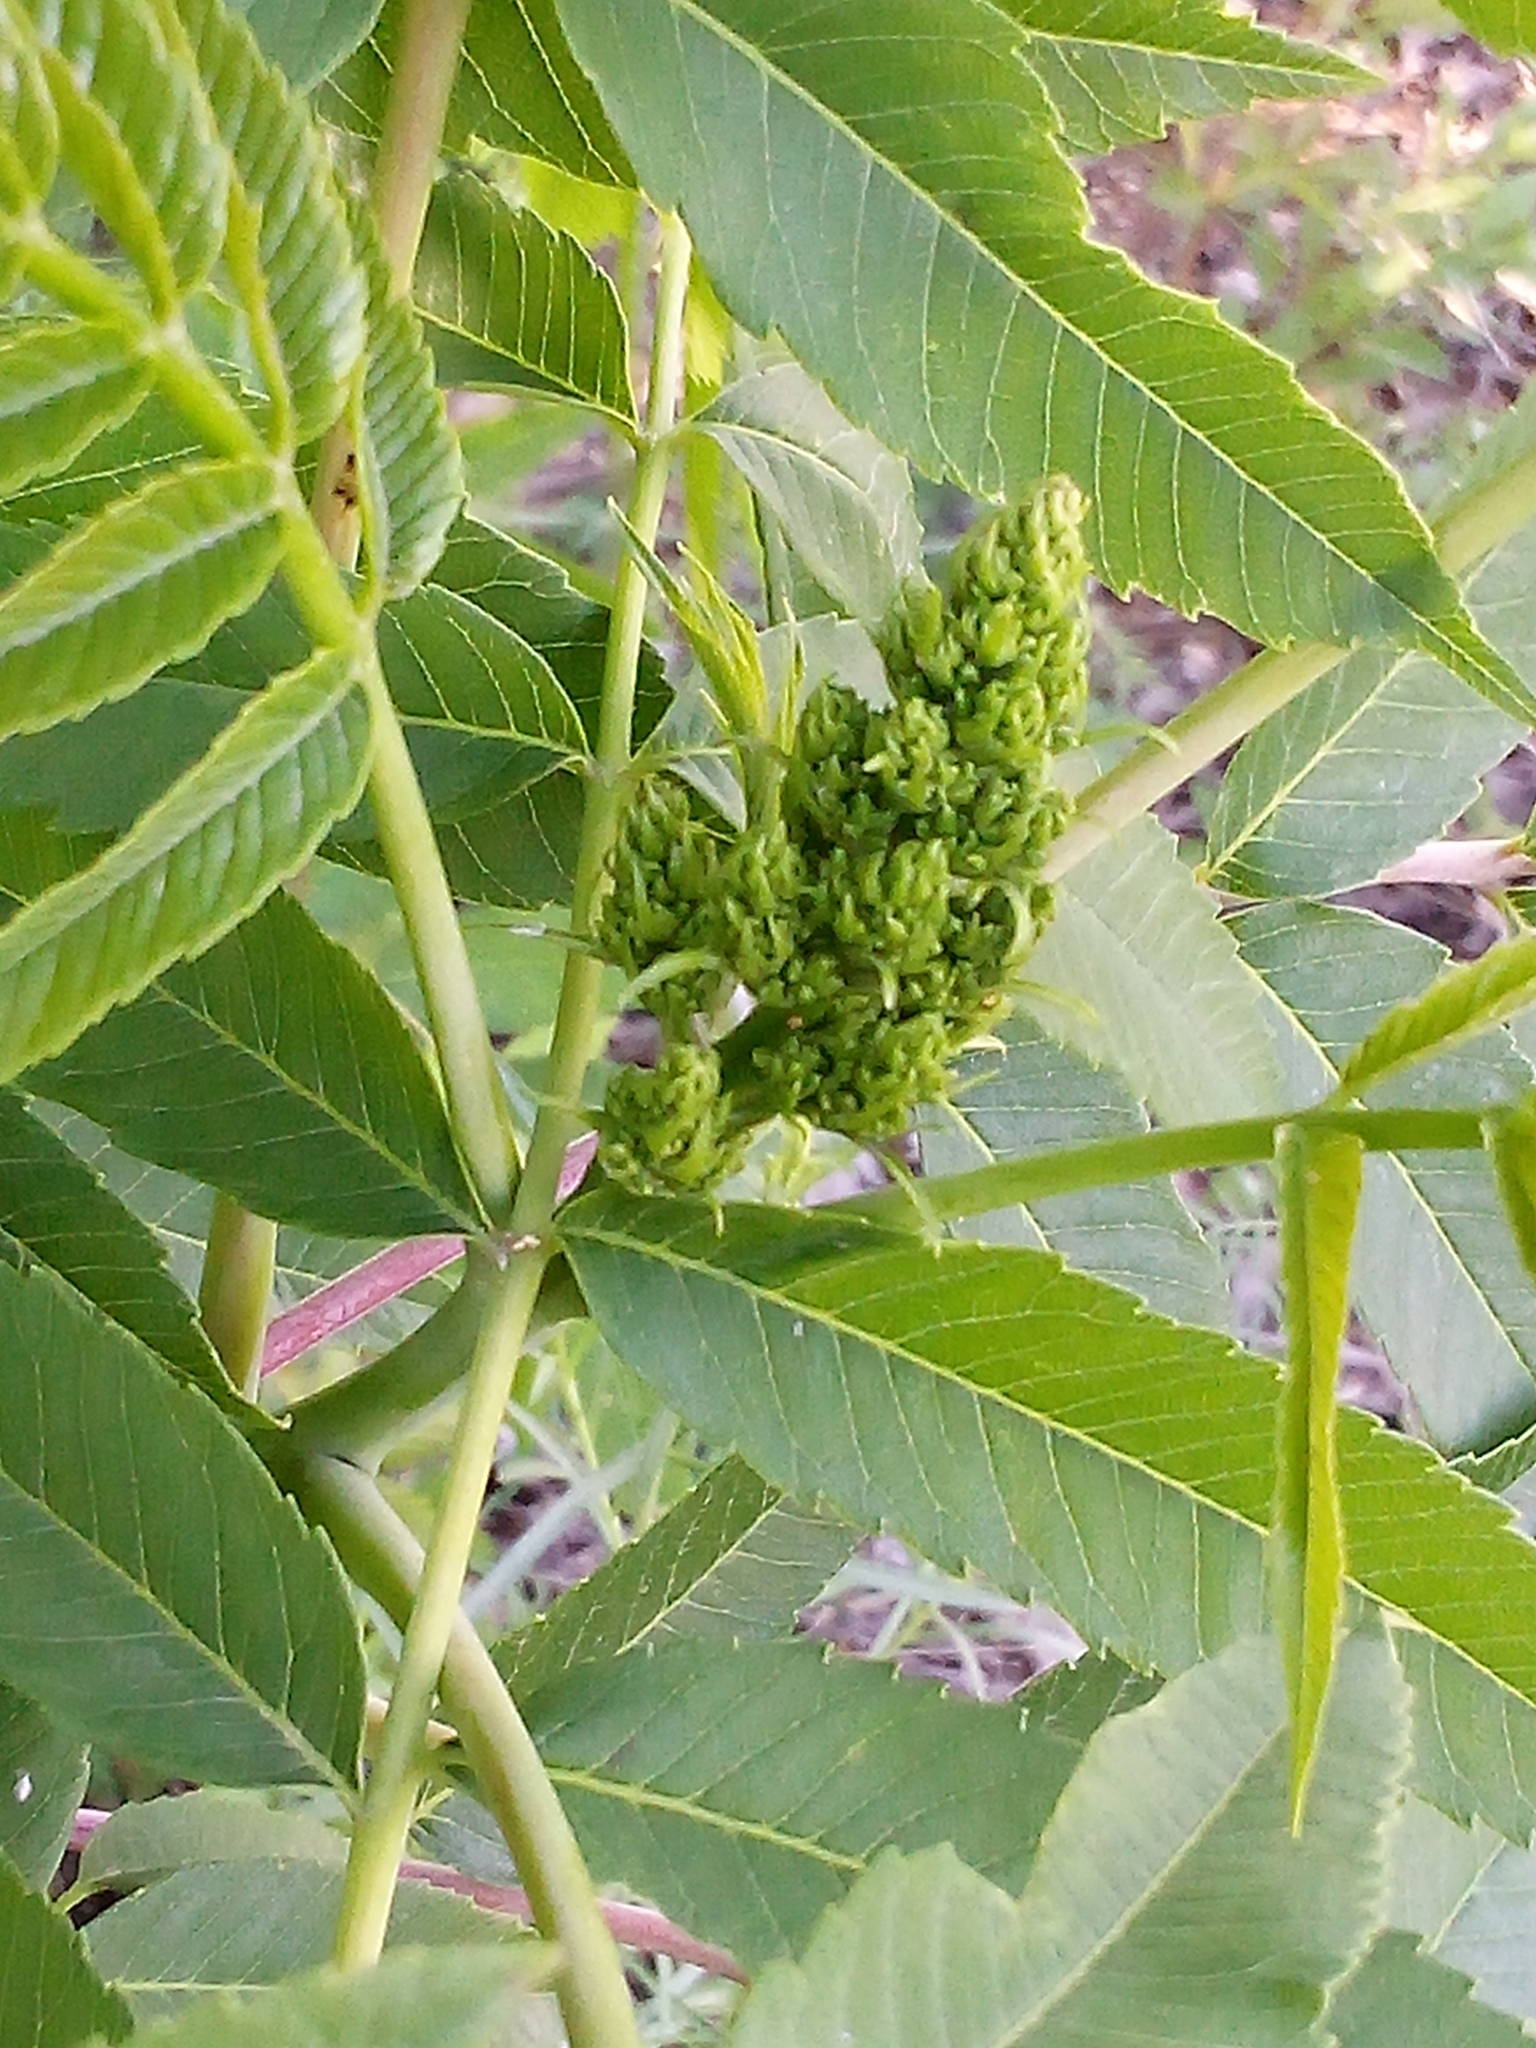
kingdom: Plantae
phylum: Tracheophyta
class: Magnoliopsida
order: Sapindales
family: Anacardiaceae
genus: Rhus
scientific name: Rhus glabra
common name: Scarlet sumac
